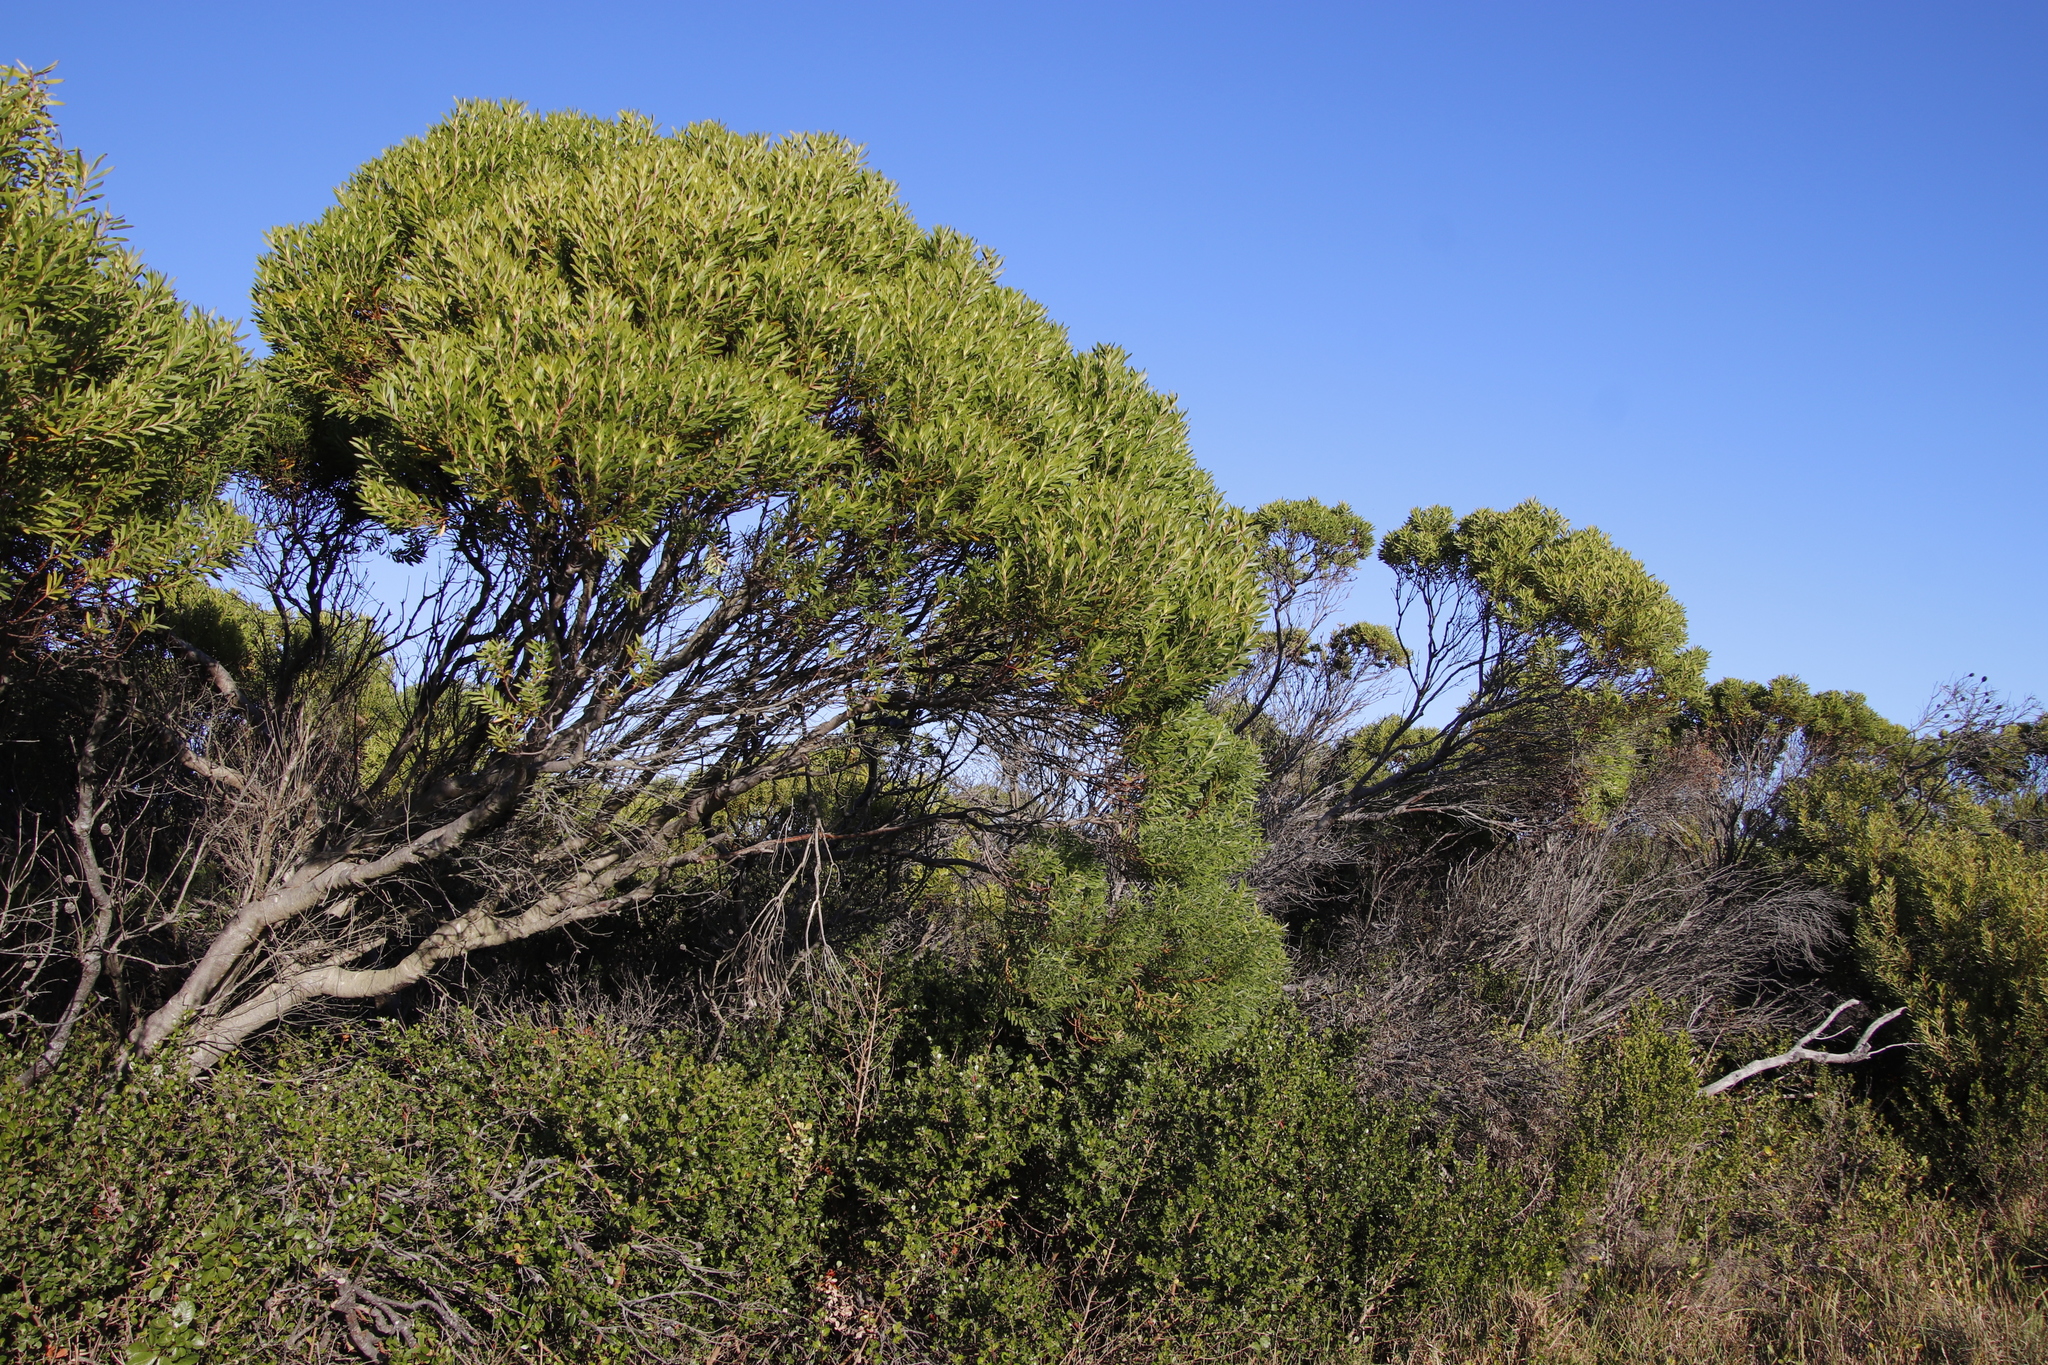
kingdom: Plantae
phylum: Tracheophyta
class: Magnoliopsida
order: Proteales
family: Proteaceae
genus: Leucadendron
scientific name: Leucadendron coniferum
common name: Dune conebush
